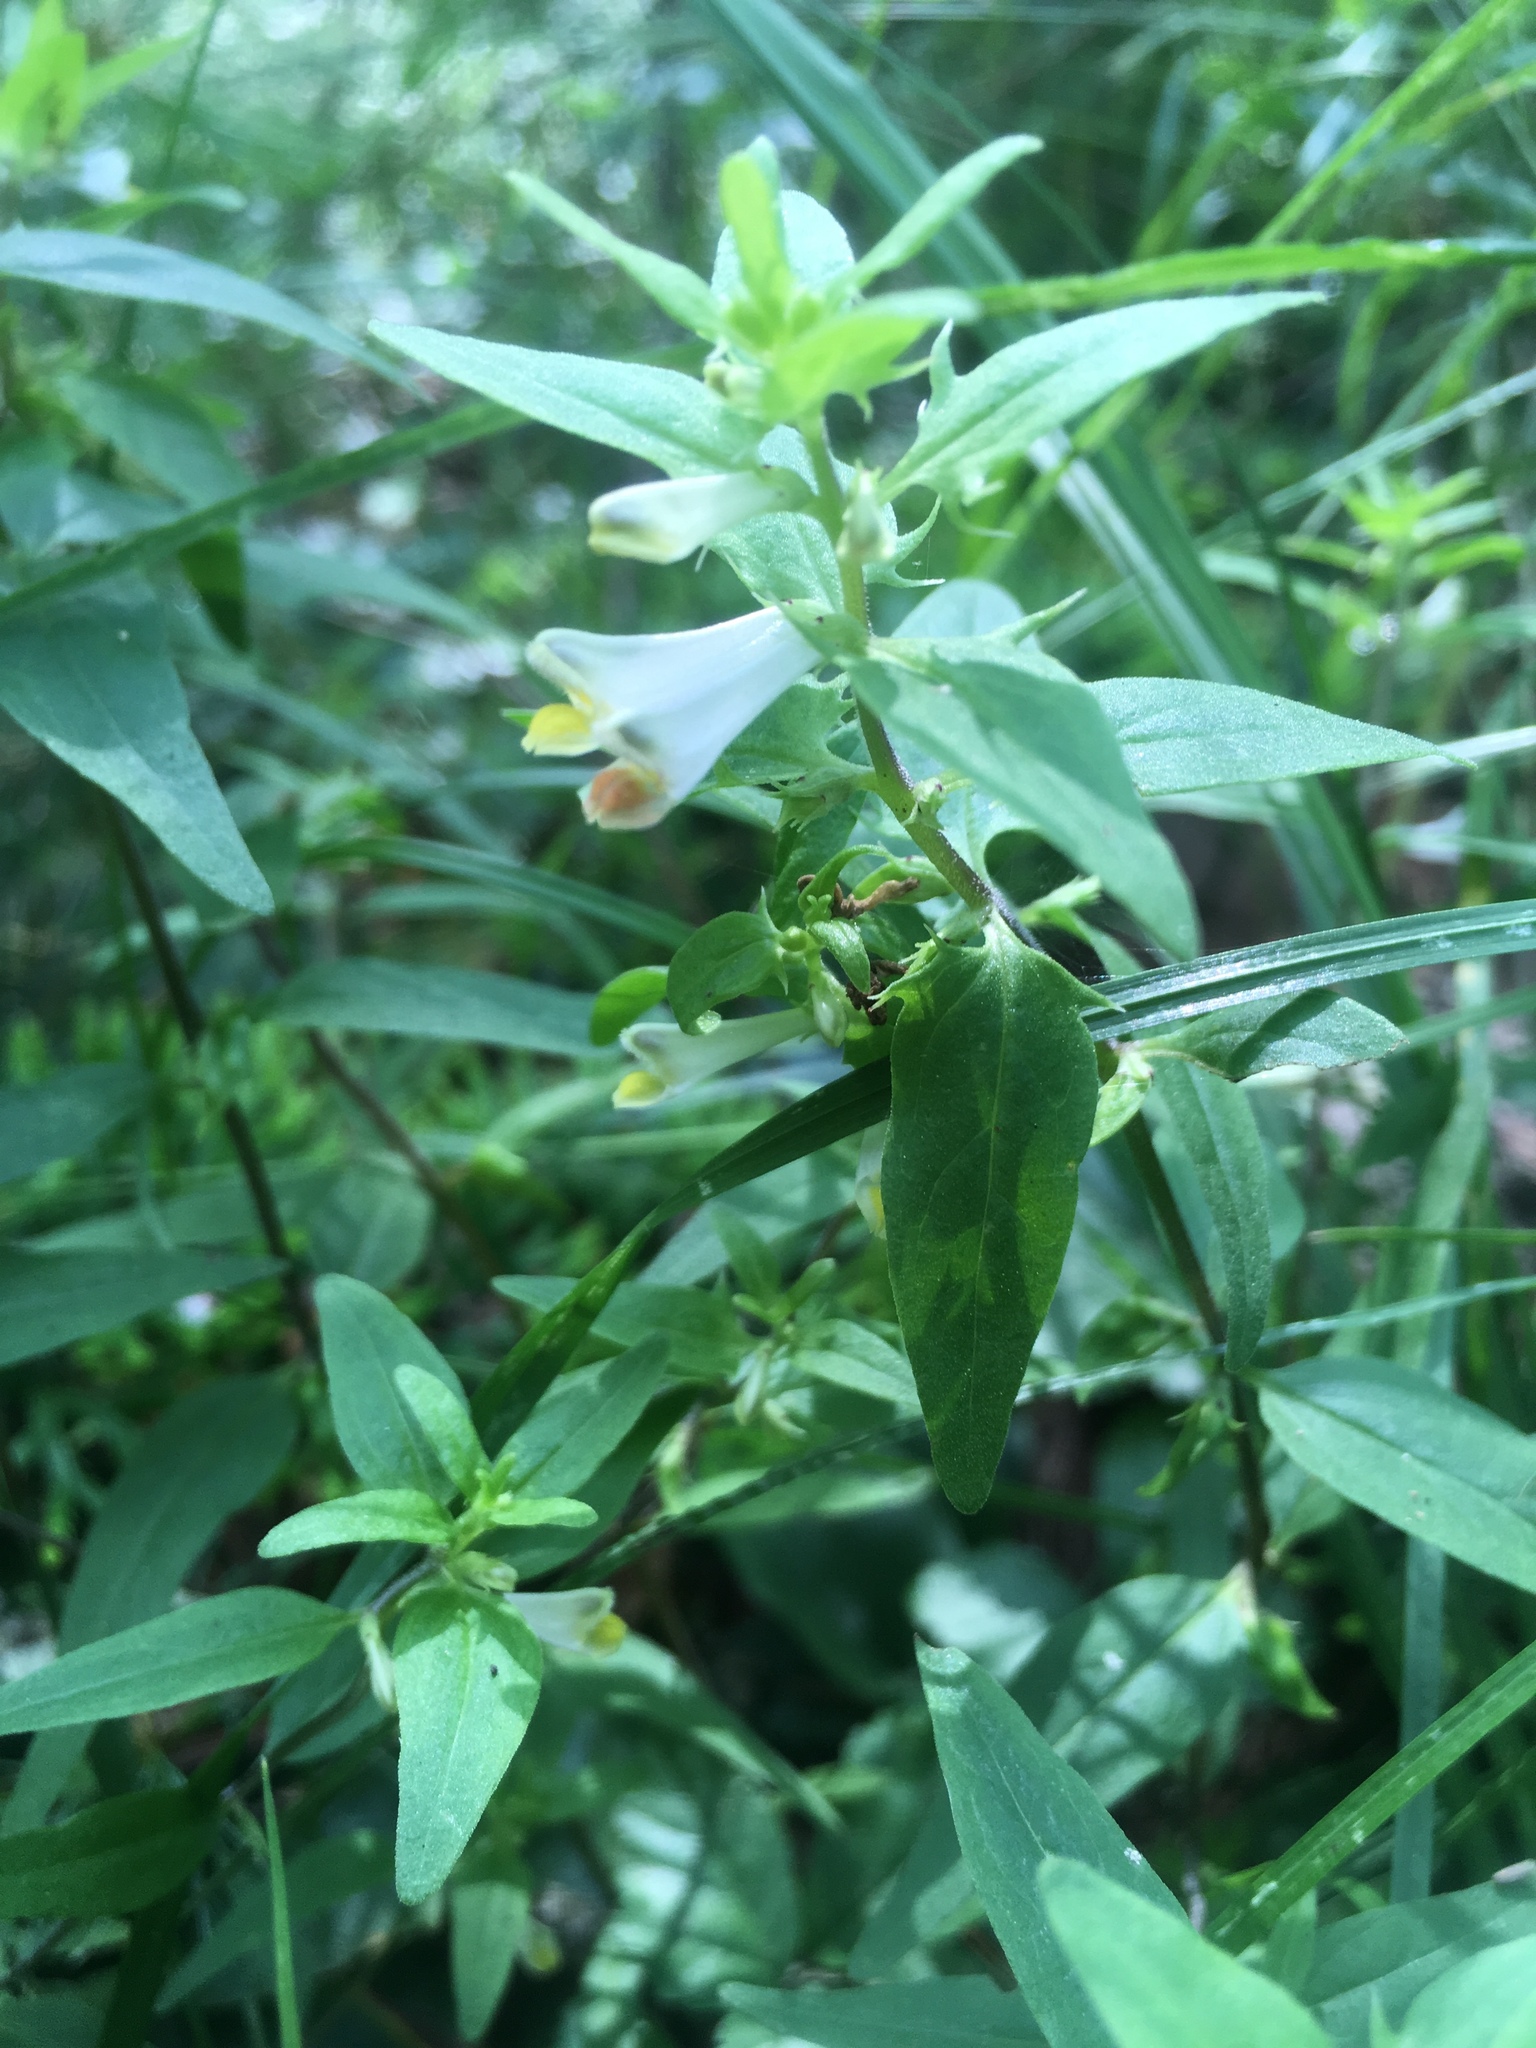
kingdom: Plantae
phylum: Tracheophyta
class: Magnoliopsida
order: Lamiales
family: Orobanchaceae
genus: Melampyrum
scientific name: Melampyrum lineare
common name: American cow-wheat
